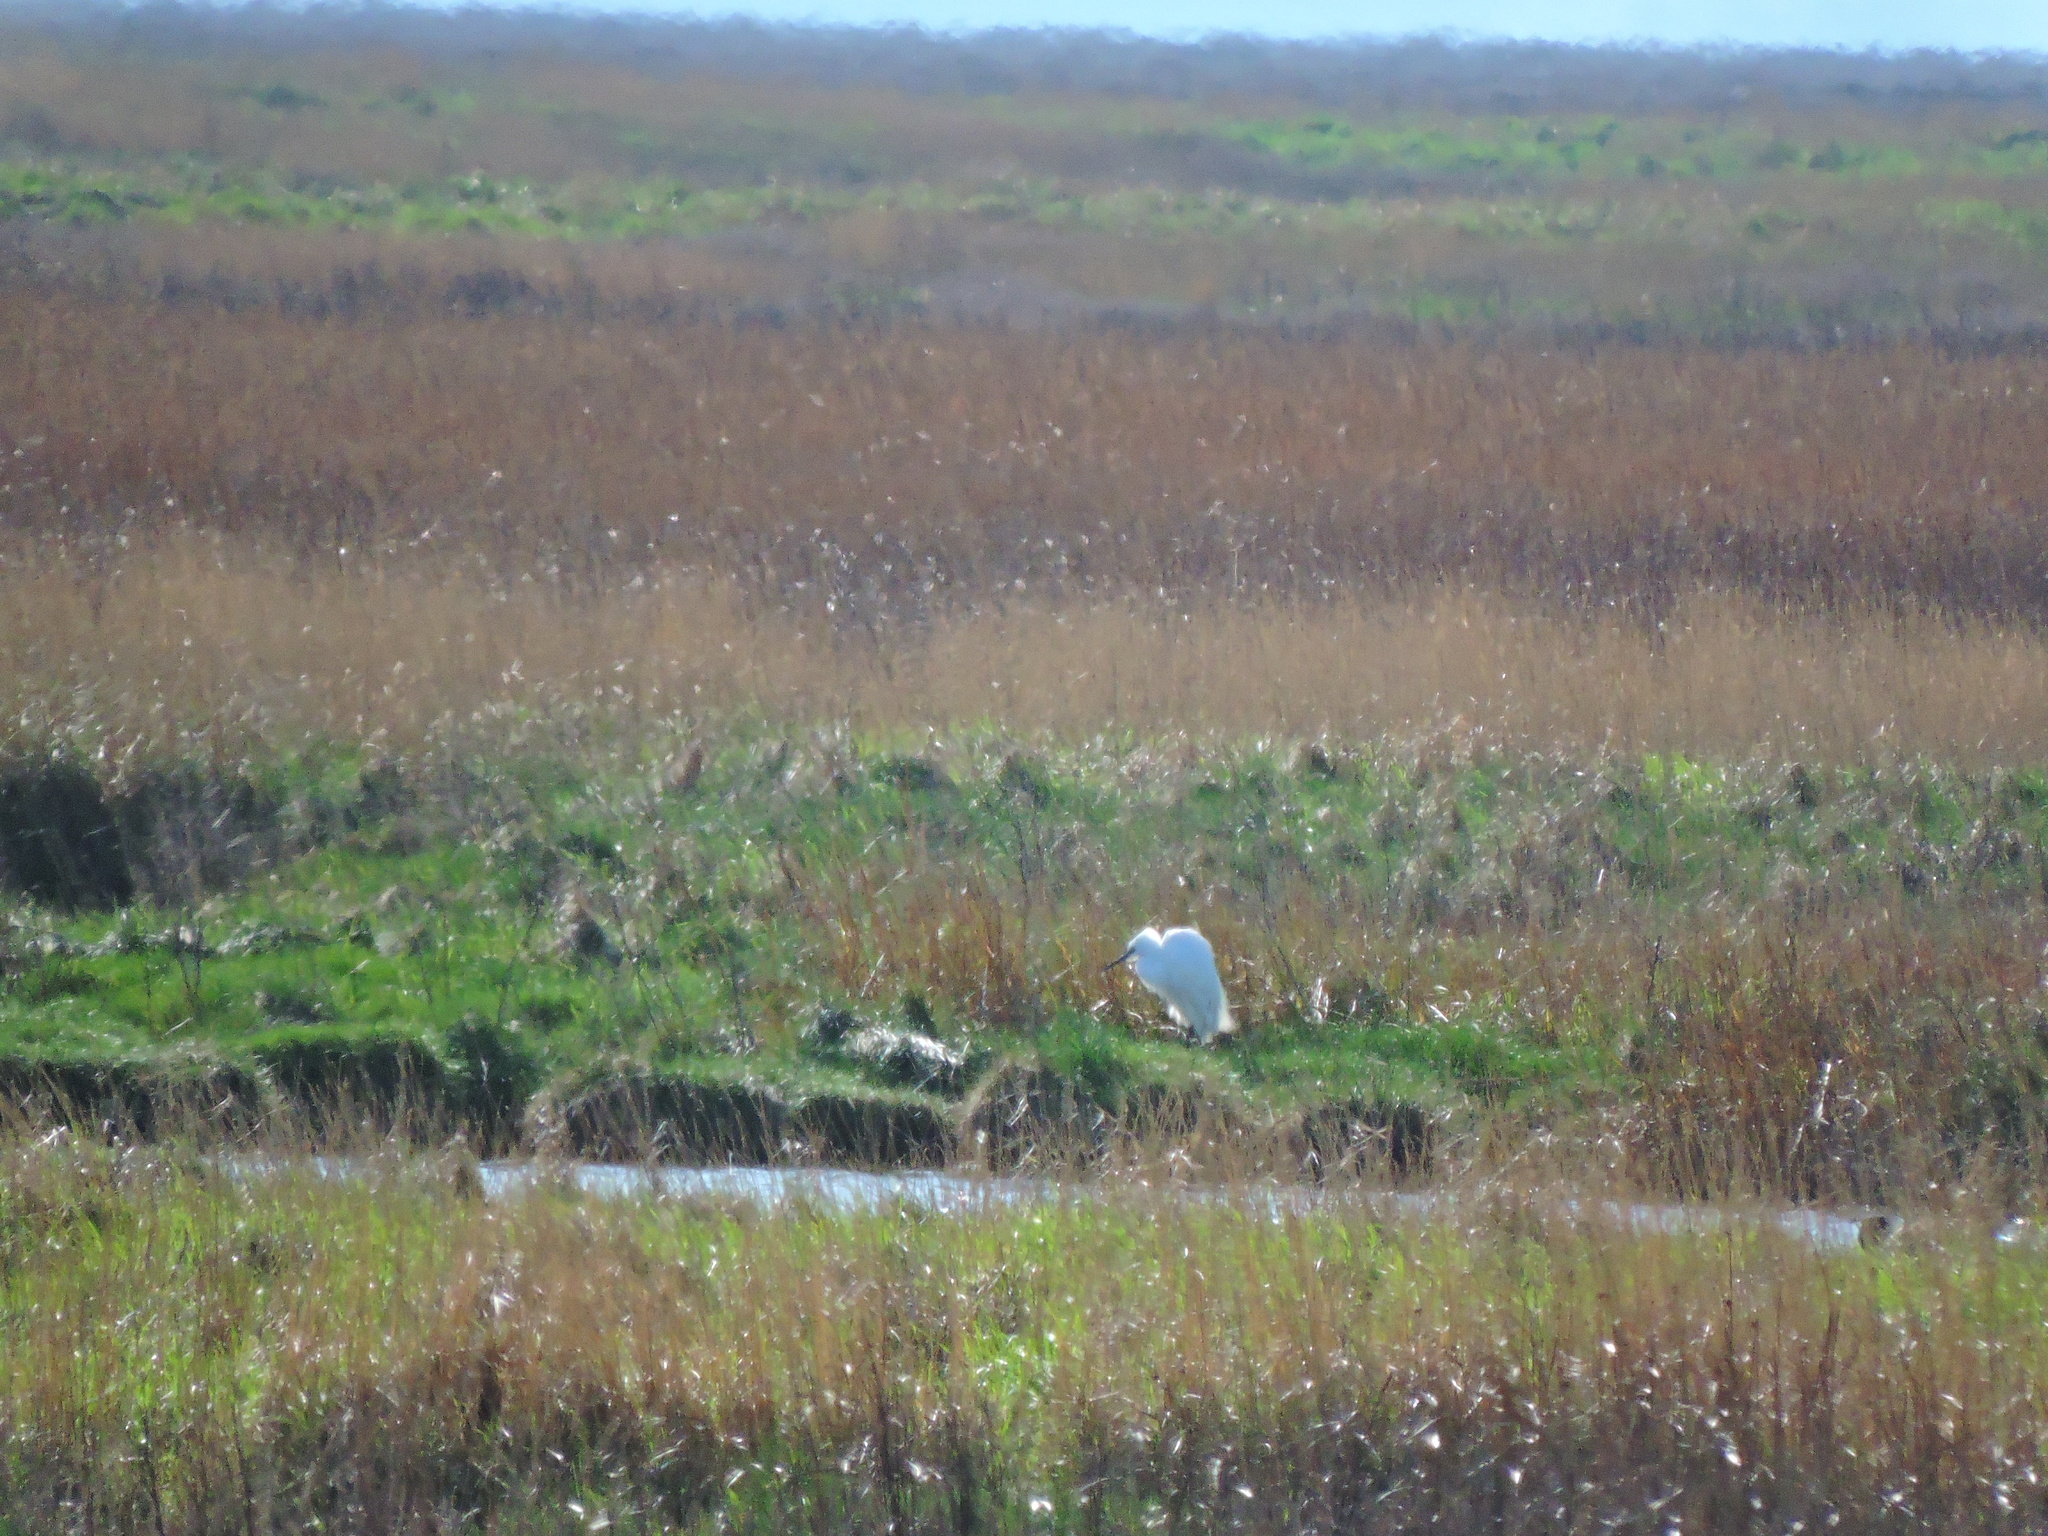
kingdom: Animalia
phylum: Chordata
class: Aves
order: Pelecaniformes
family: Ardeidae
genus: Egretta
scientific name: Egretta garzetta
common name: Little egret
